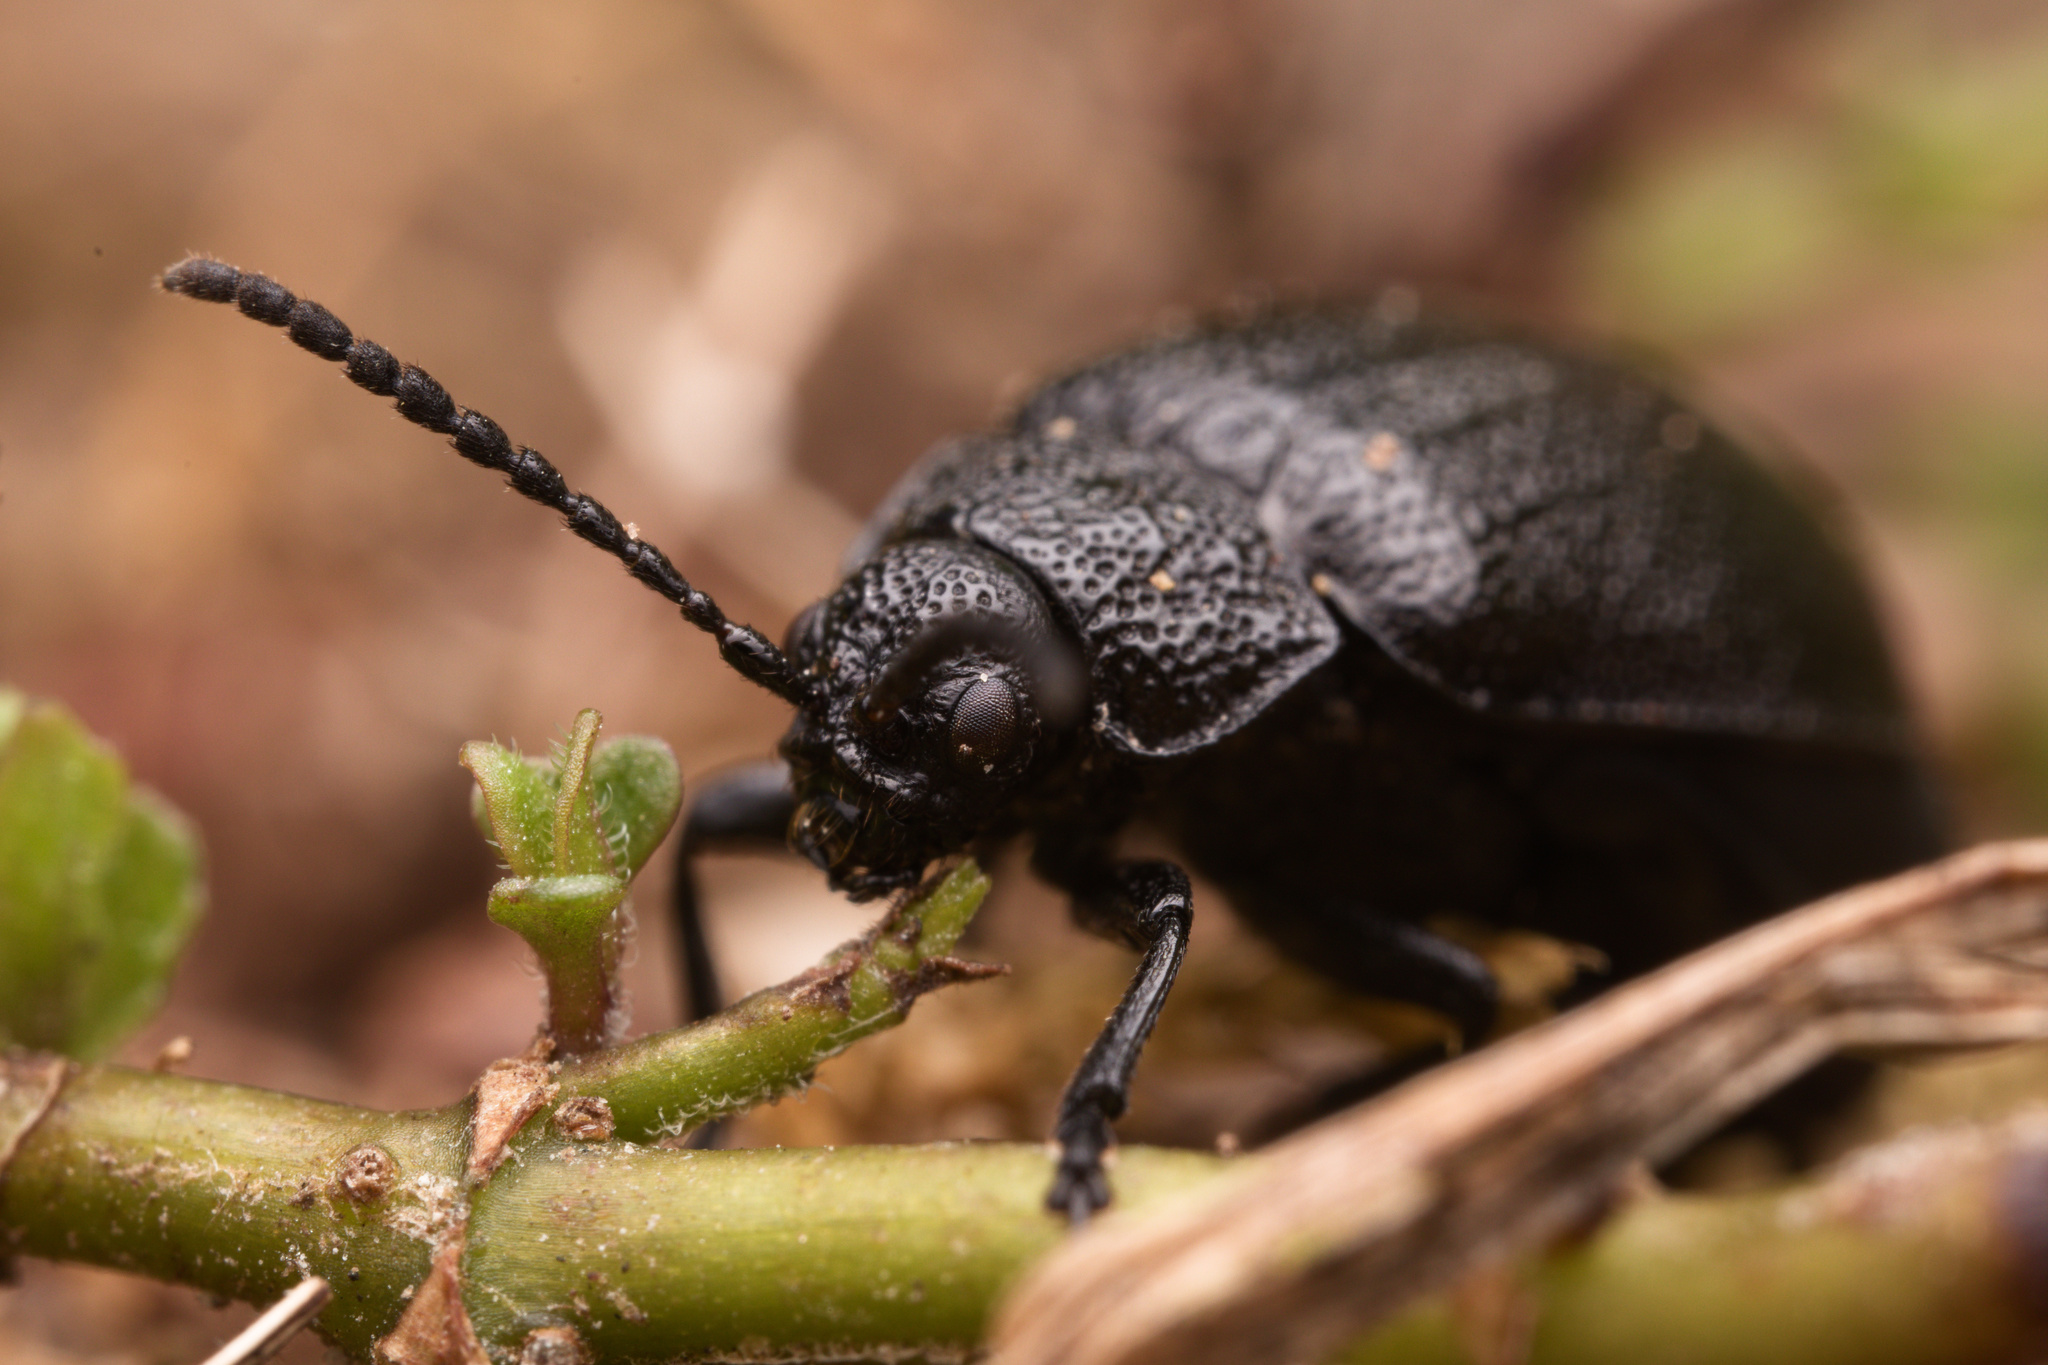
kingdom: Animalia
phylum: Arthropoda
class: Insecta
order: Coleoptera
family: Chrysomelidae
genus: Galeruca
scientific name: Galeruca tanaceti
